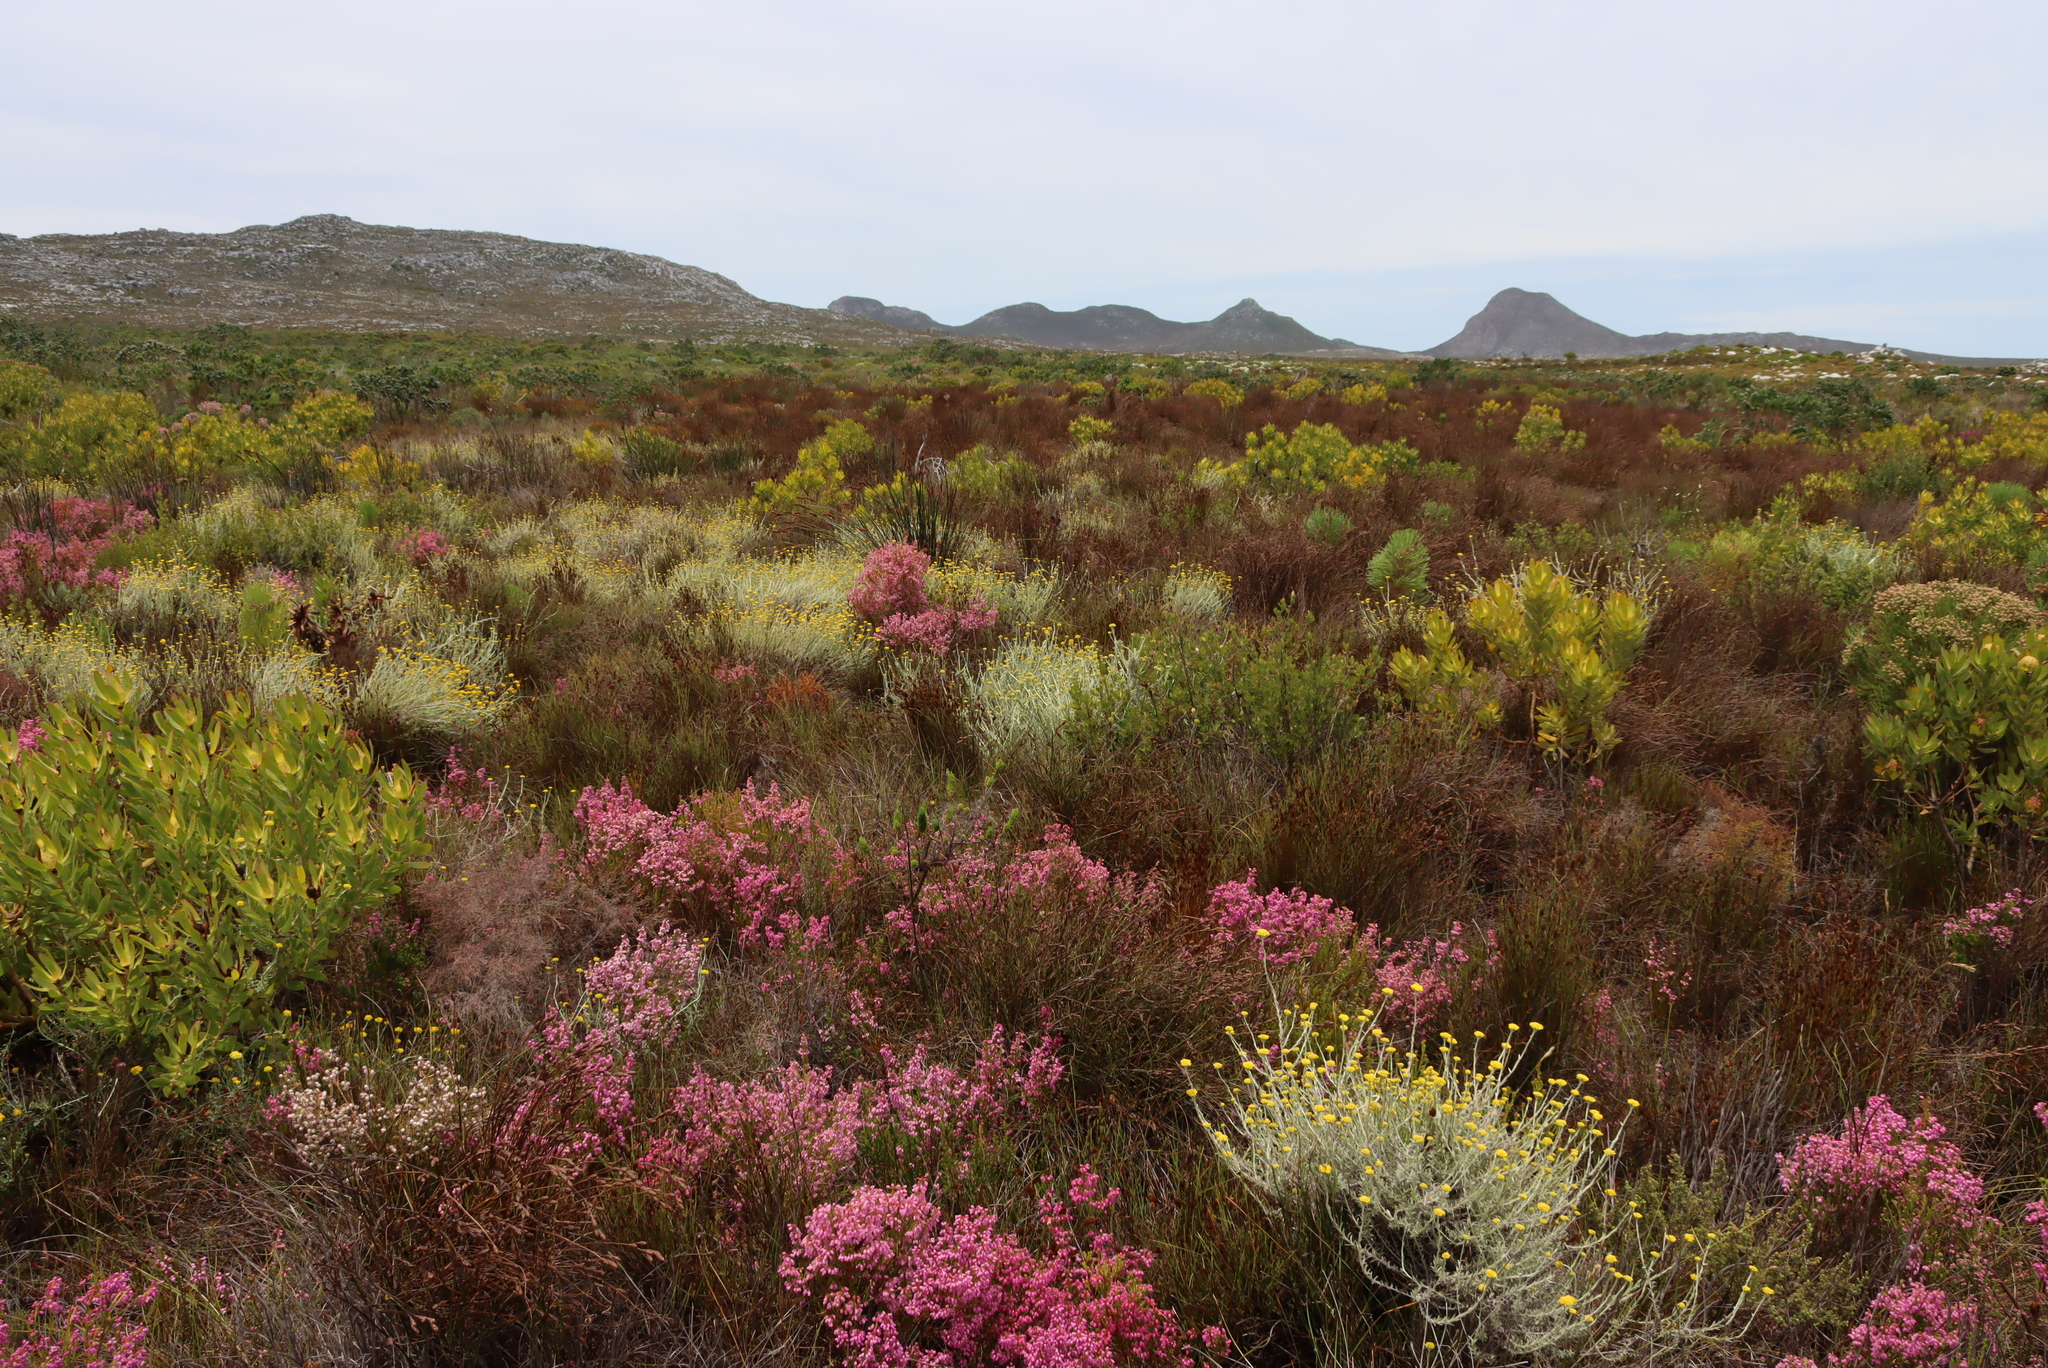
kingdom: Plantae
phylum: Tracheophyta
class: Magnoliopsida
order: Asterales
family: Asteraceae
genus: Helichrysum
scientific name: Helichrysum cymosum
